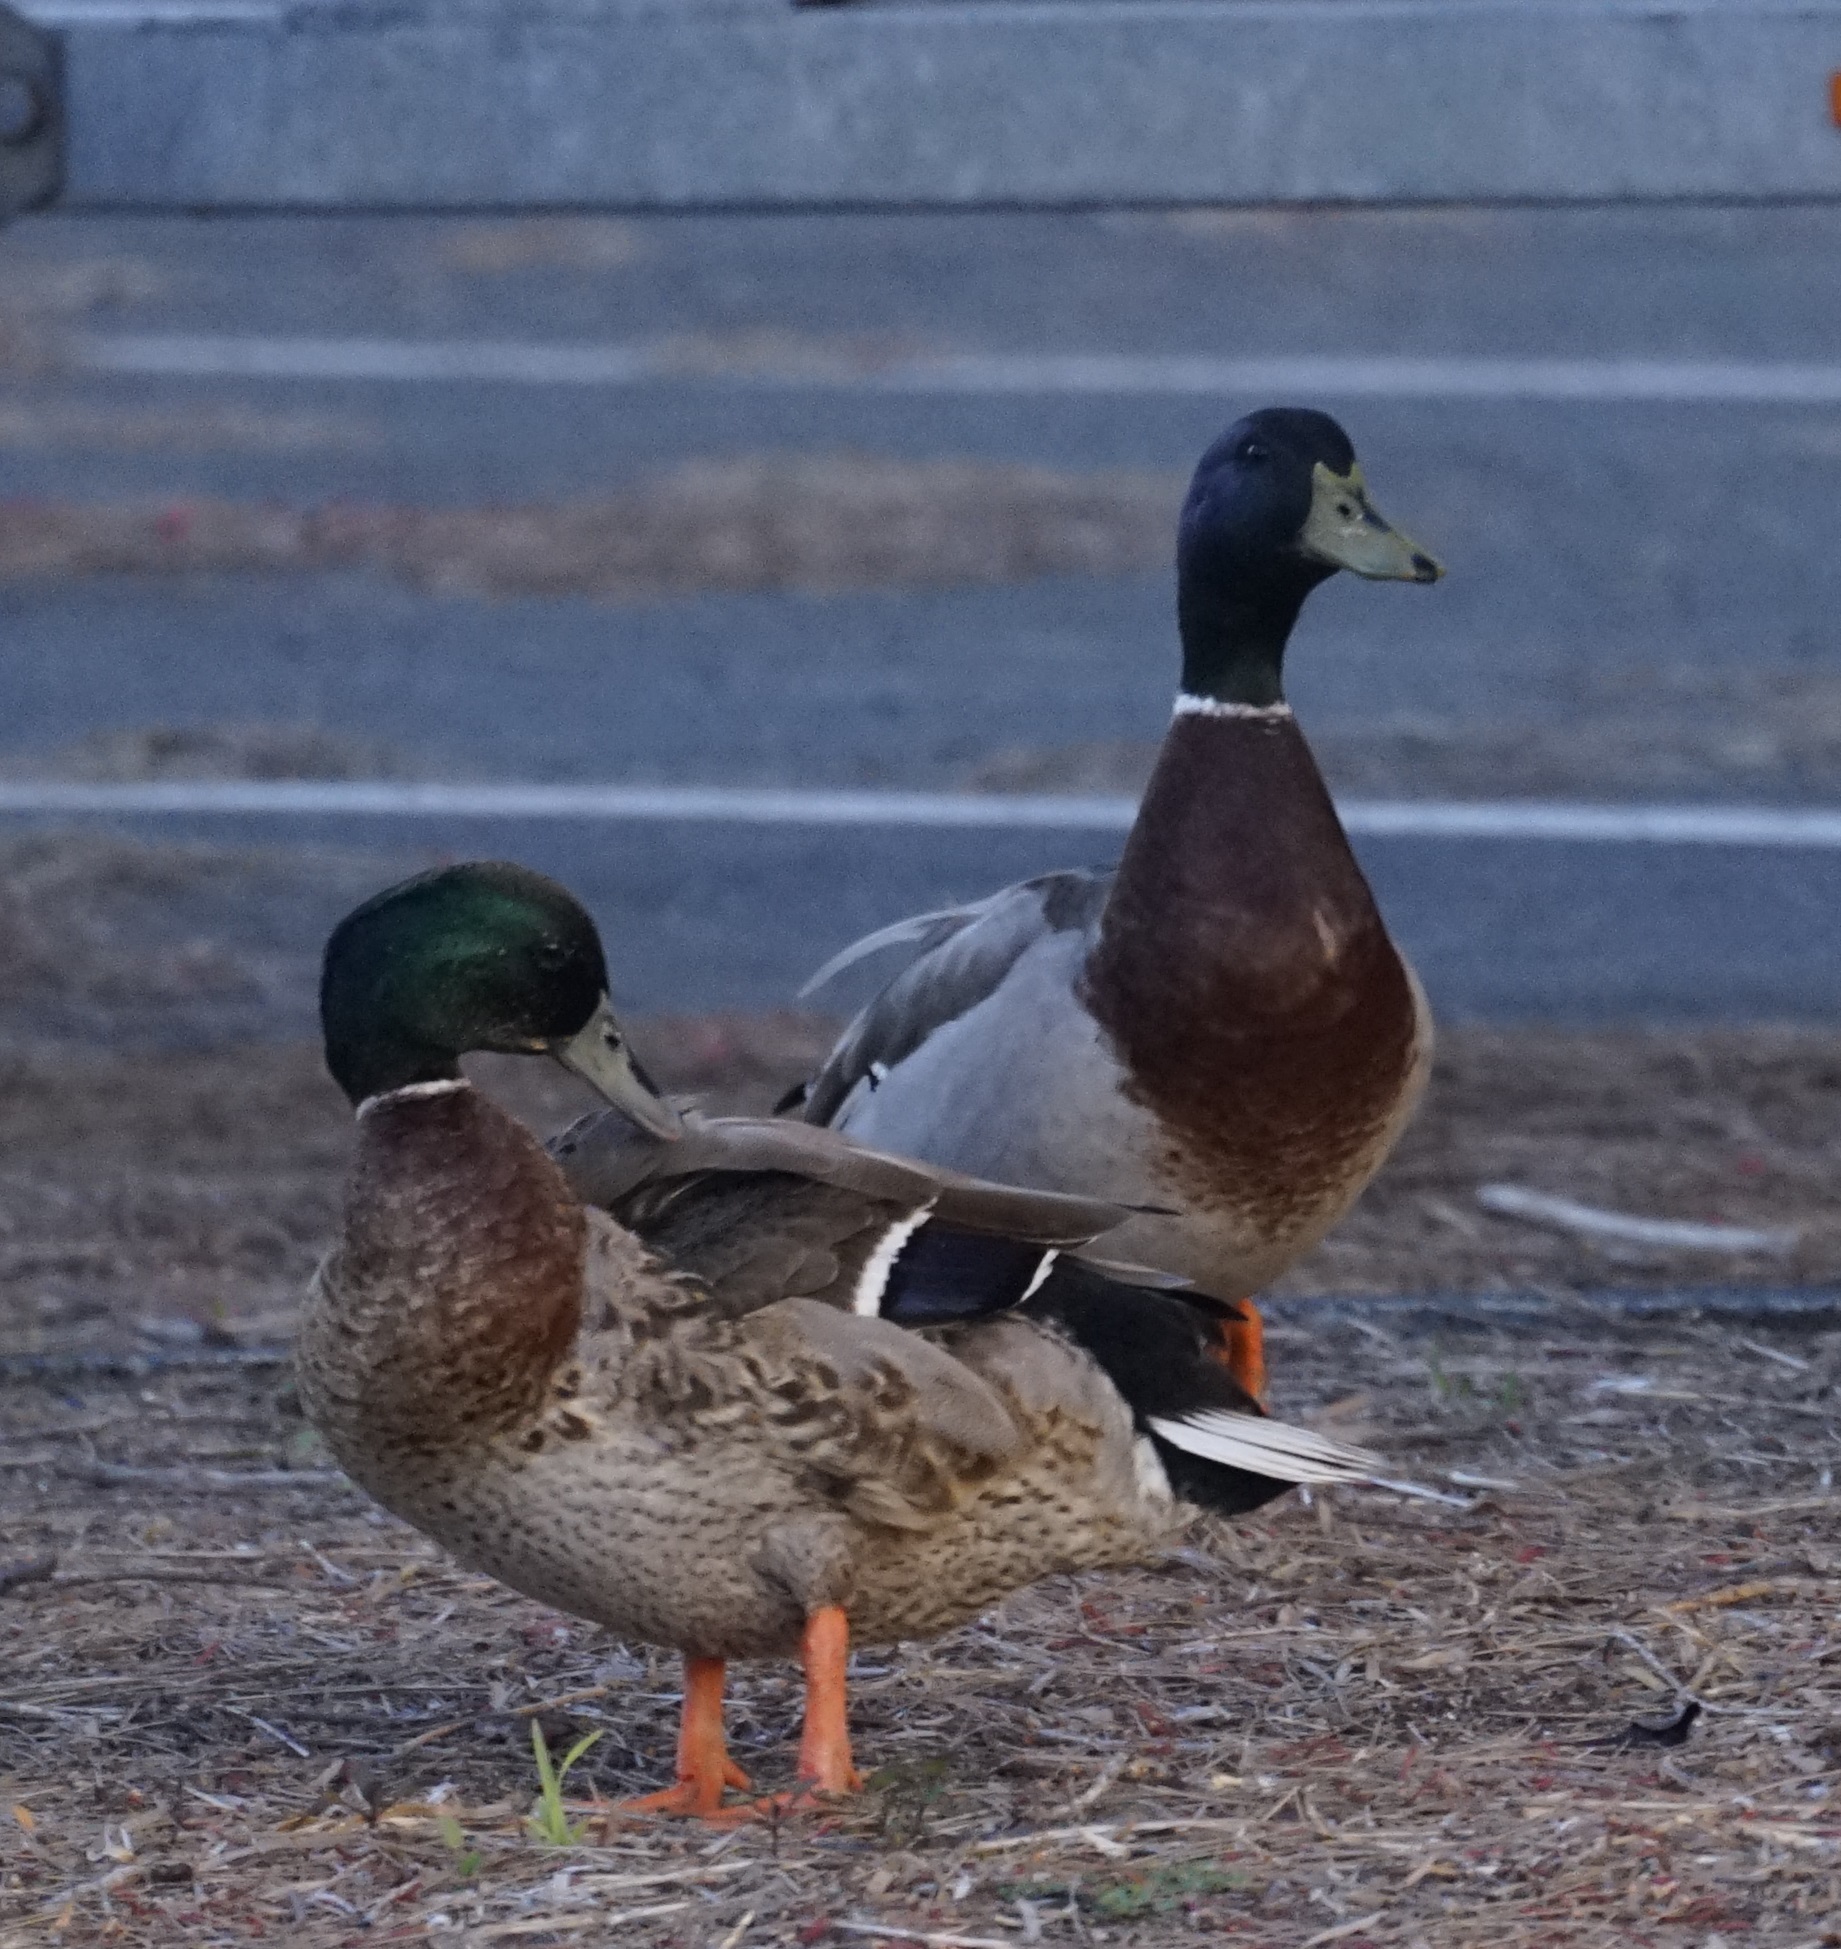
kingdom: Animalia
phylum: Chordata
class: Aves
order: Anseriformes
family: Anatidae
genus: Anas
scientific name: Anas platyrhynchos
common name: Mallard
